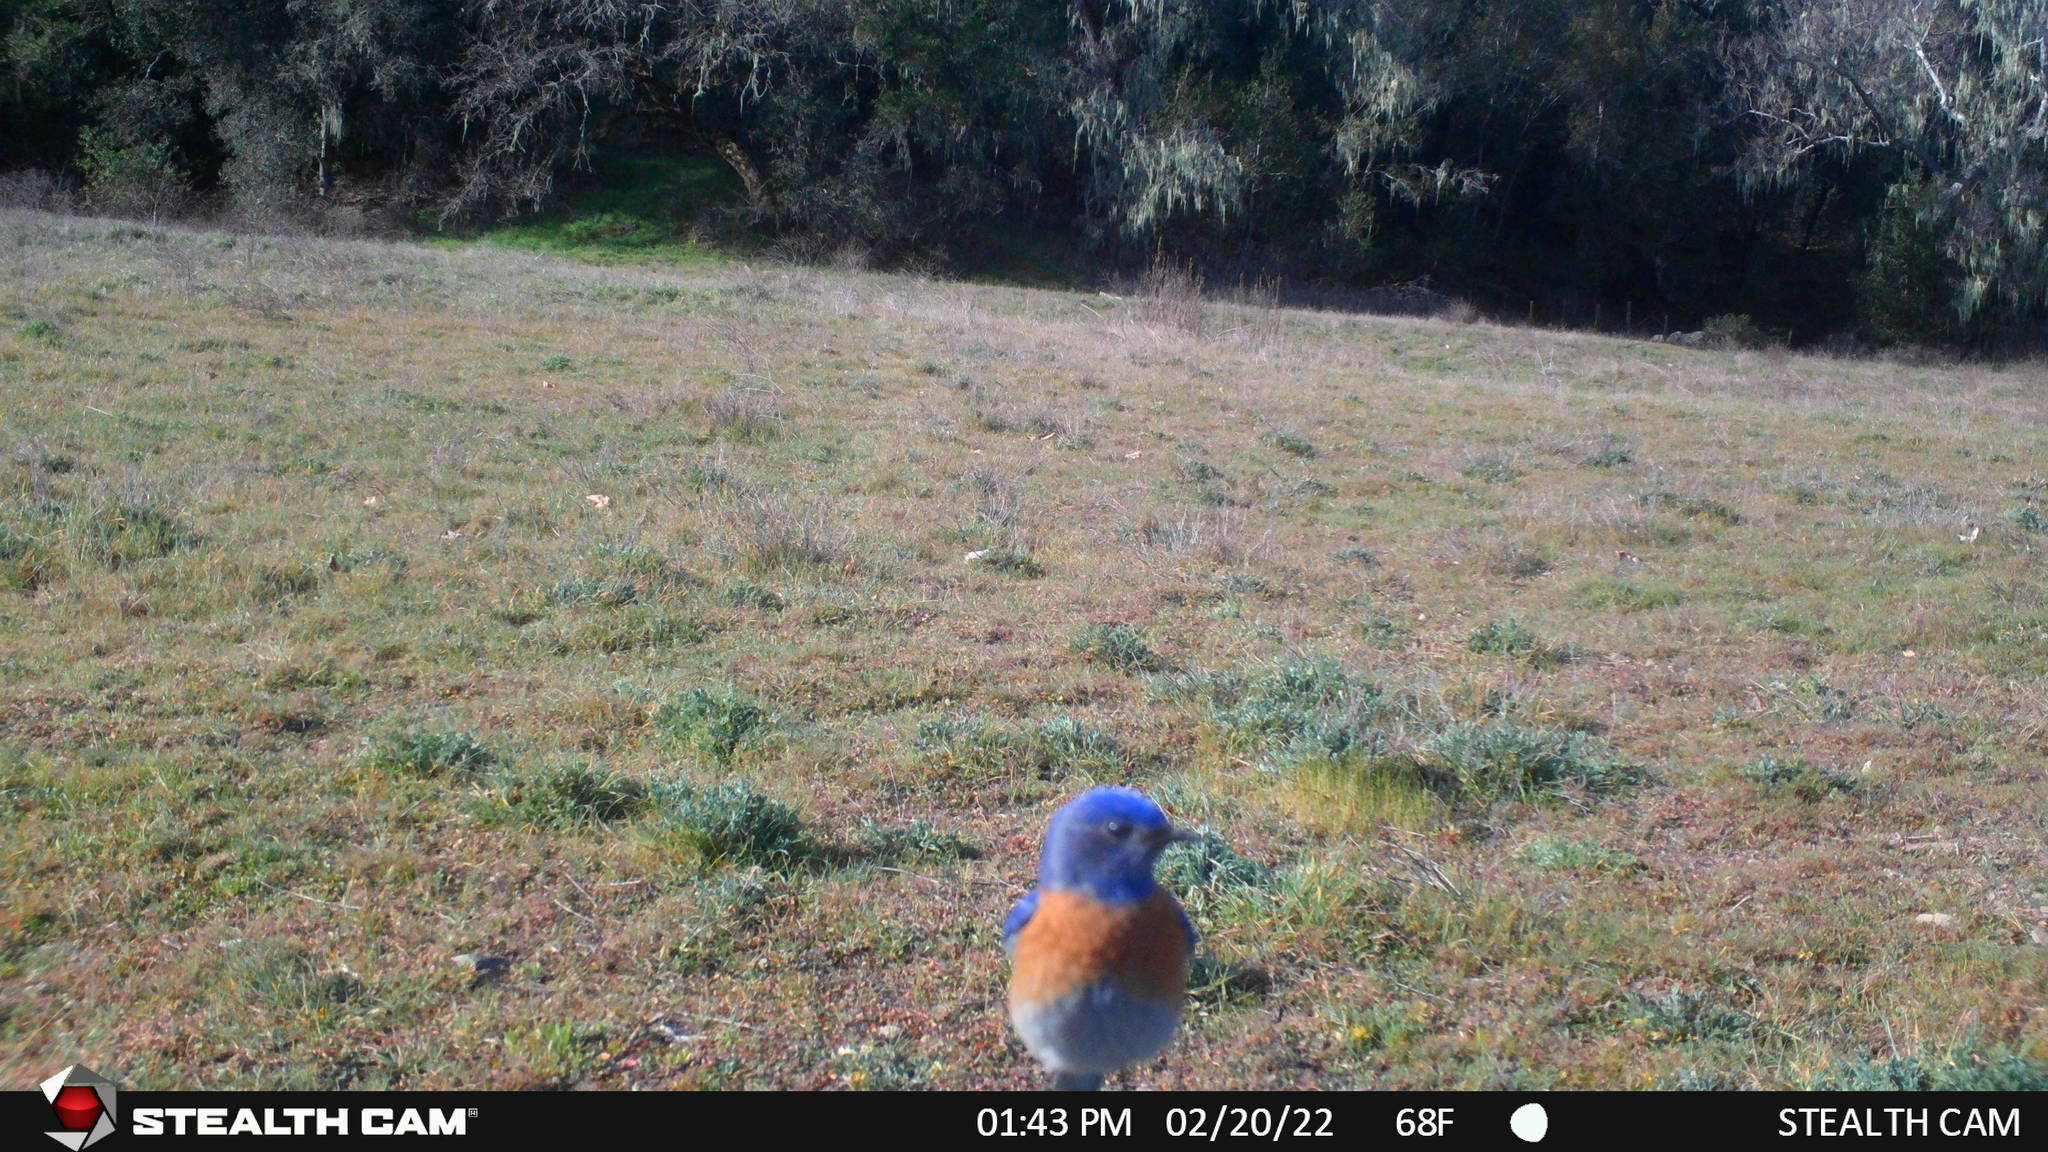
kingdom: Animalia
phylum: Chordata
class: Aves
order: Passeriformes
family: Turdidae
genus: Sialia
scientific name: Sialia mexicana
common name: Western bluebird
